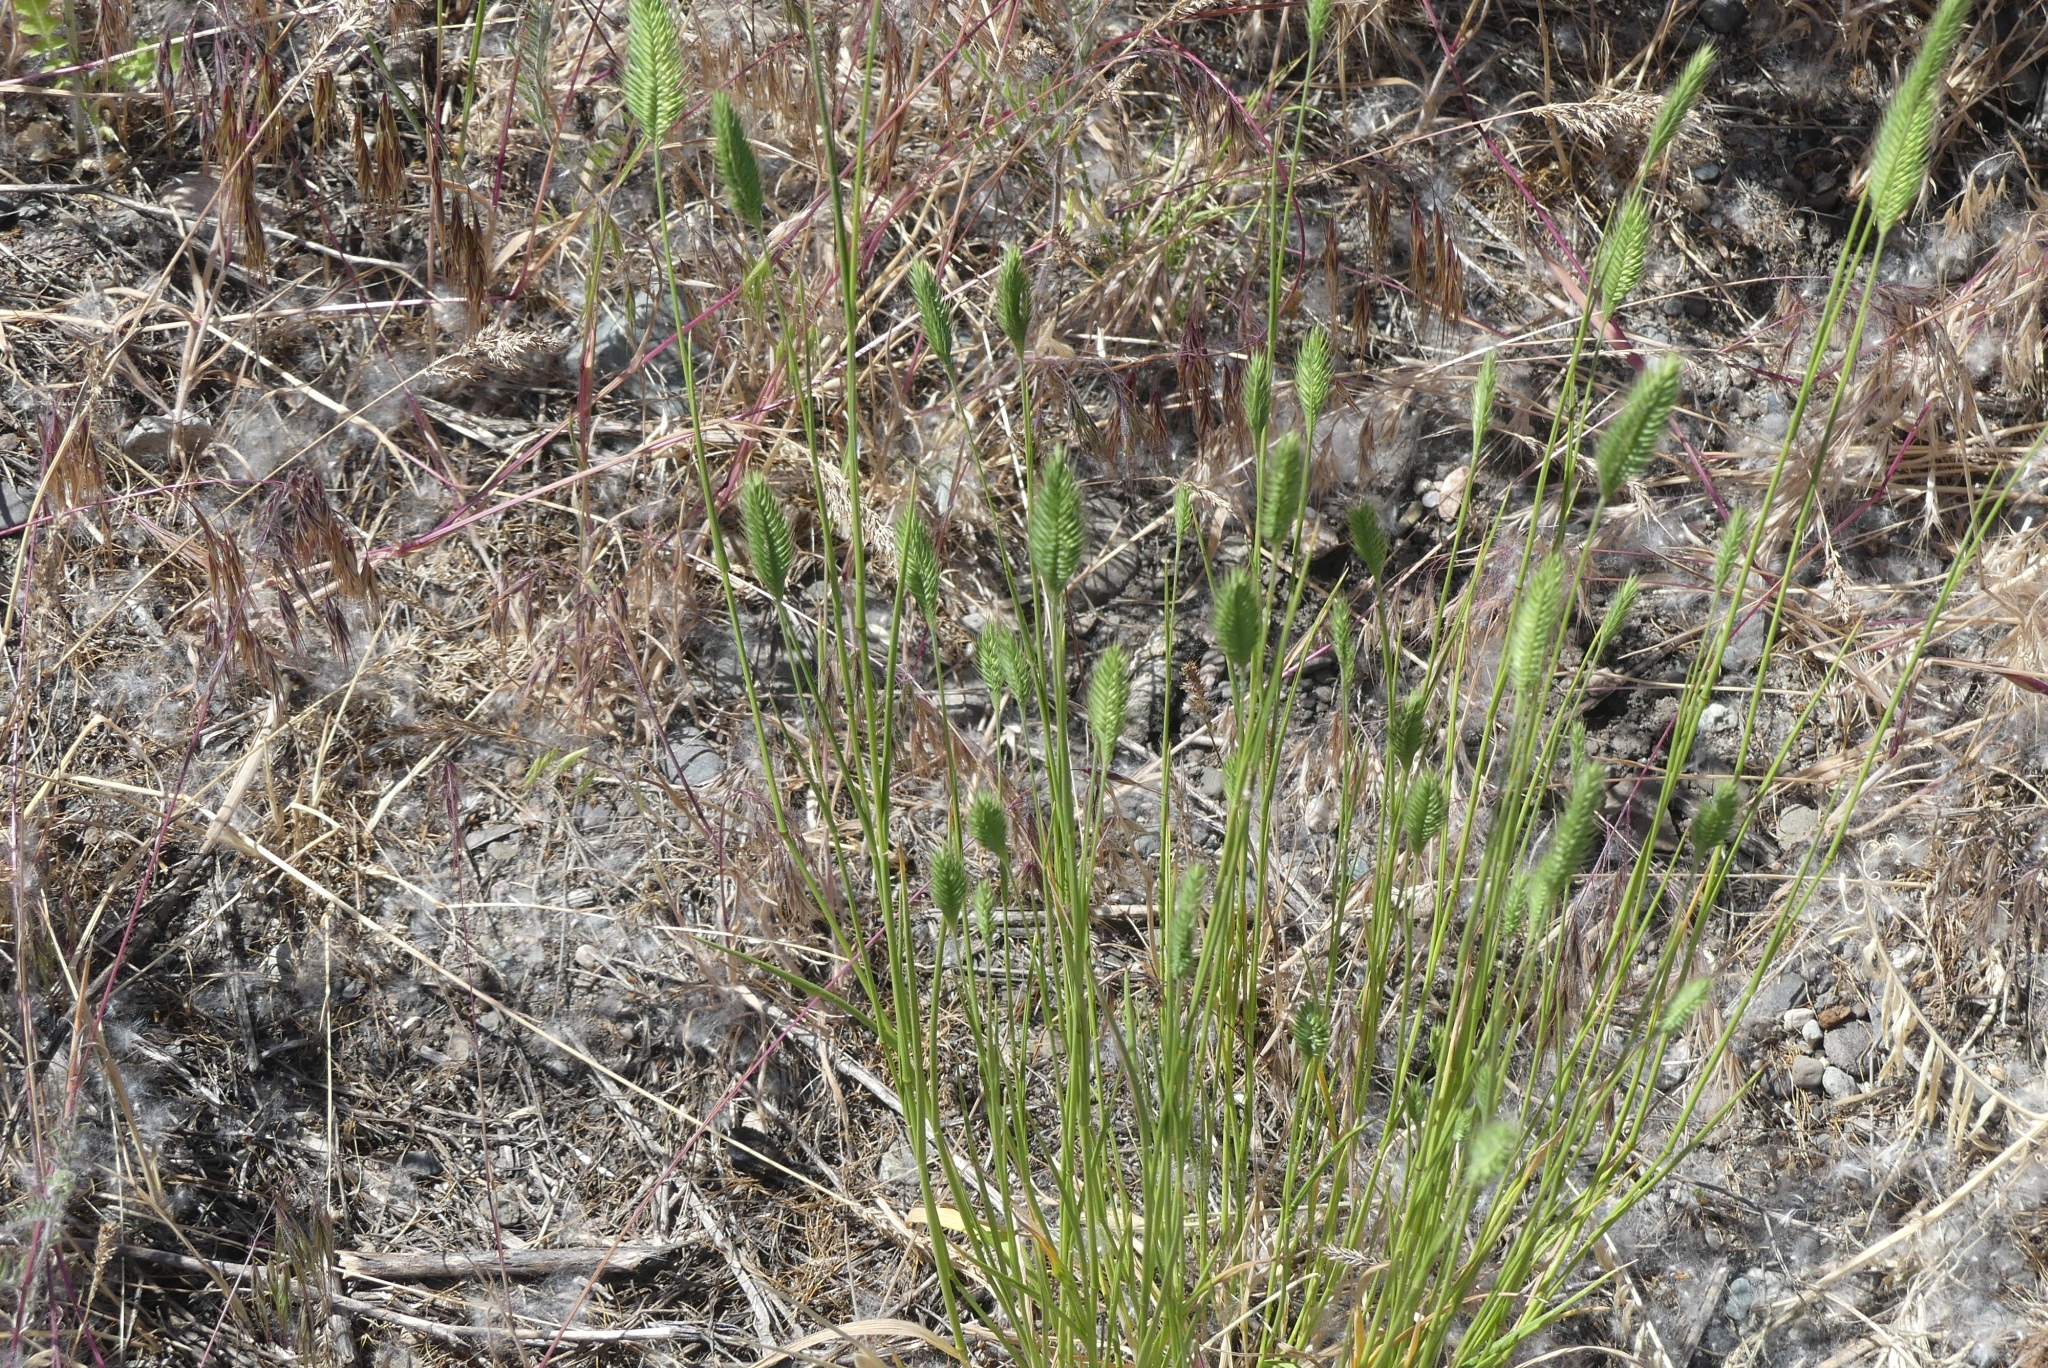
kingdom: Plantae
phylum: Tracheophyta
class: Liliopsida
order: Poales
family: Poaceae
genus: Agropyron
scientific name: Agropyron cristatum
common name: Crested wheatgrass
